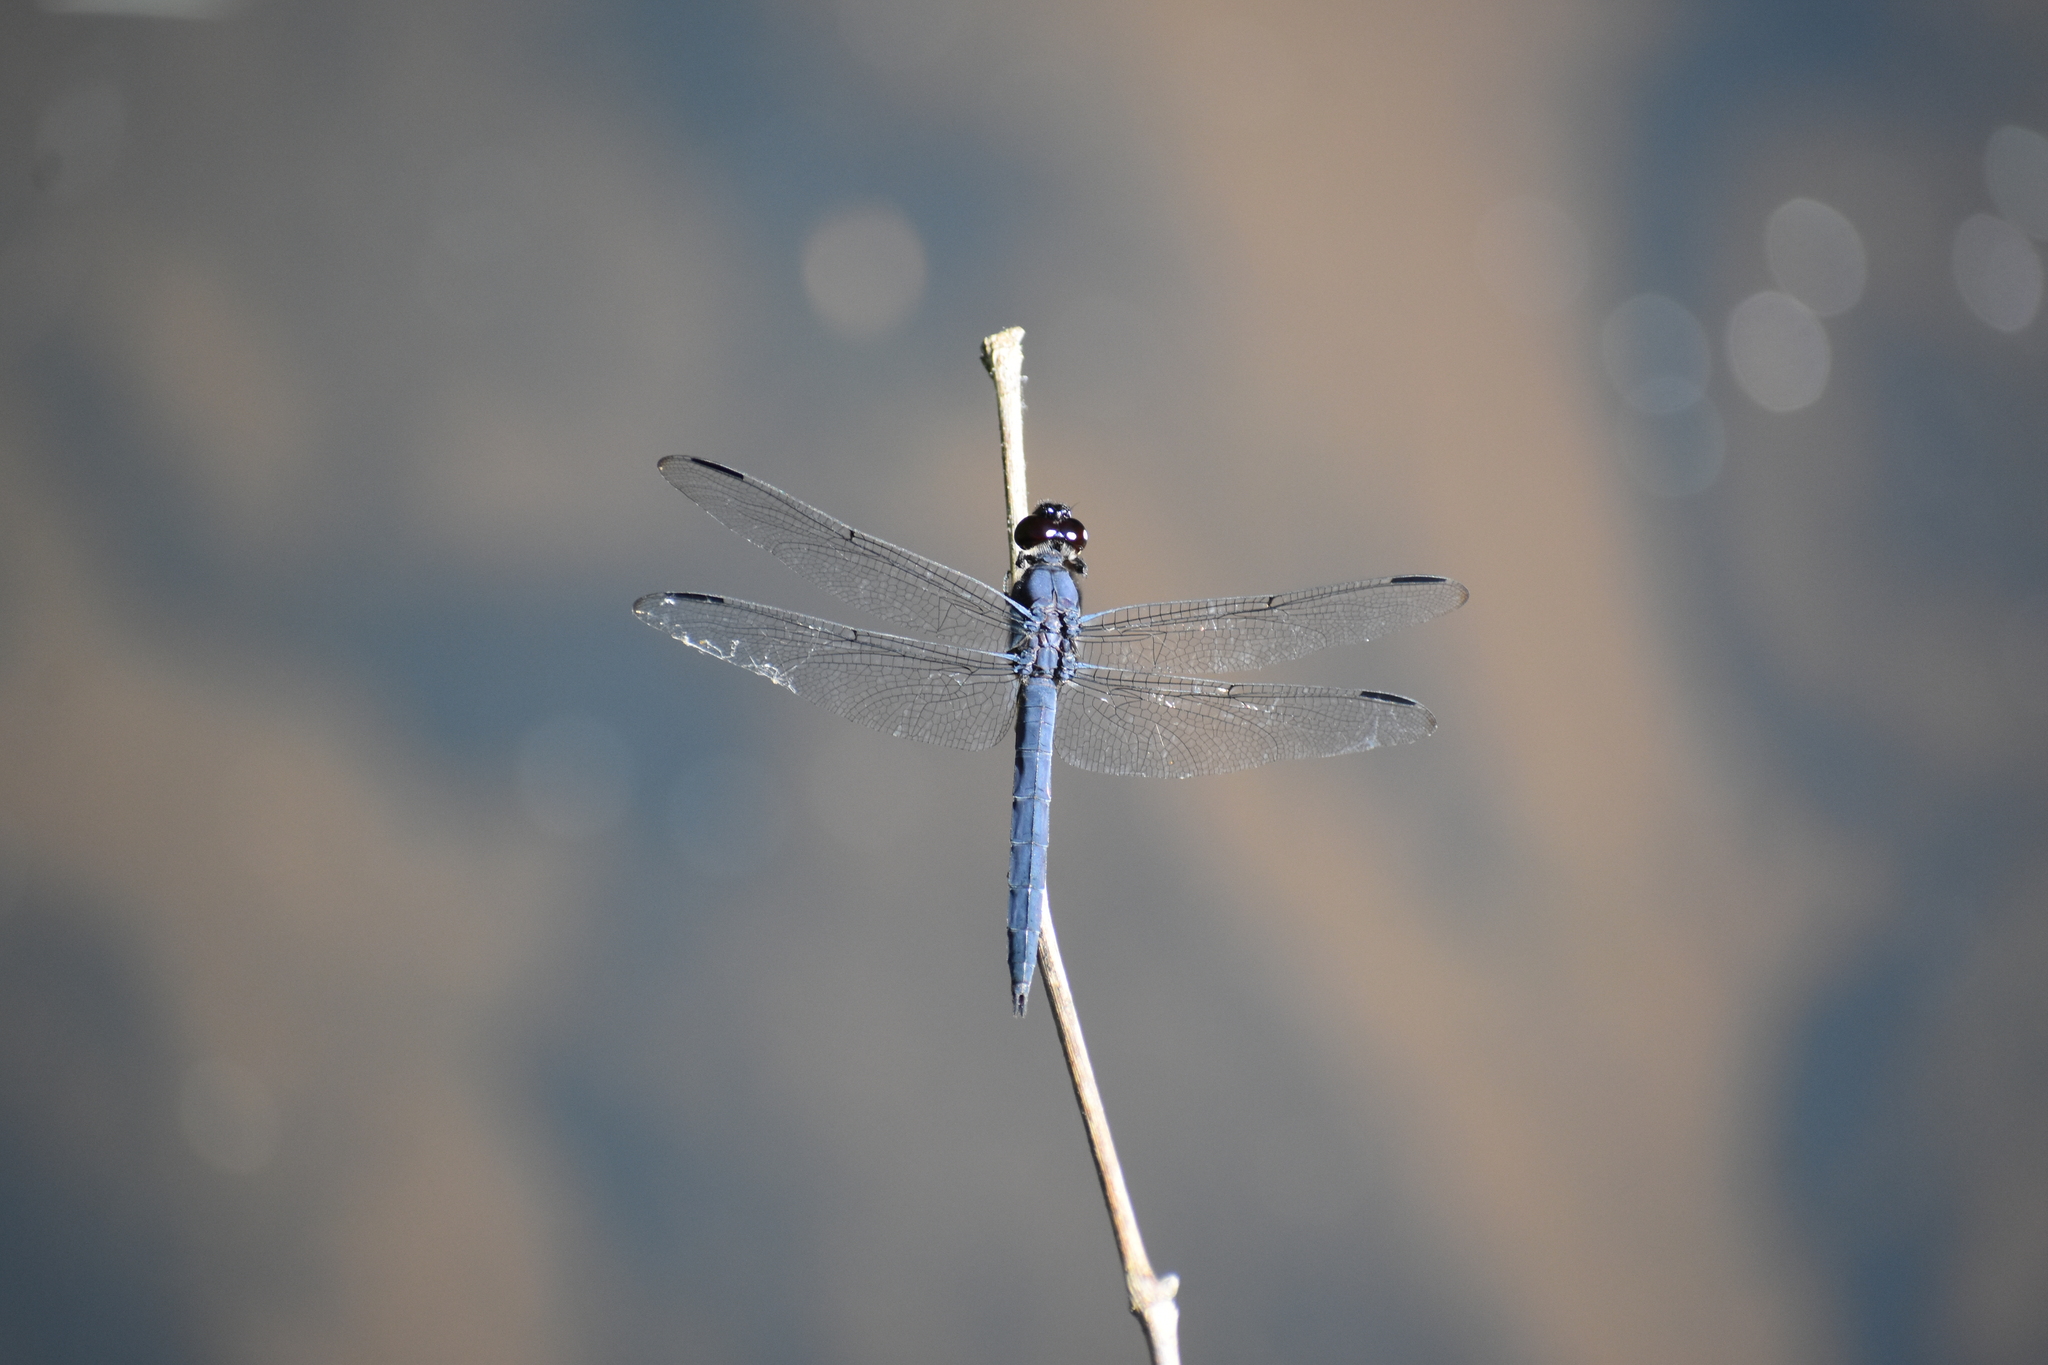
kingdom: Animalia
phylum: Arthropoda
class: Insecta
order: Odonata
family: Libellulidae
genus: Libellula
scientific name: Libellula incesta
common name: Slaty skimmer
